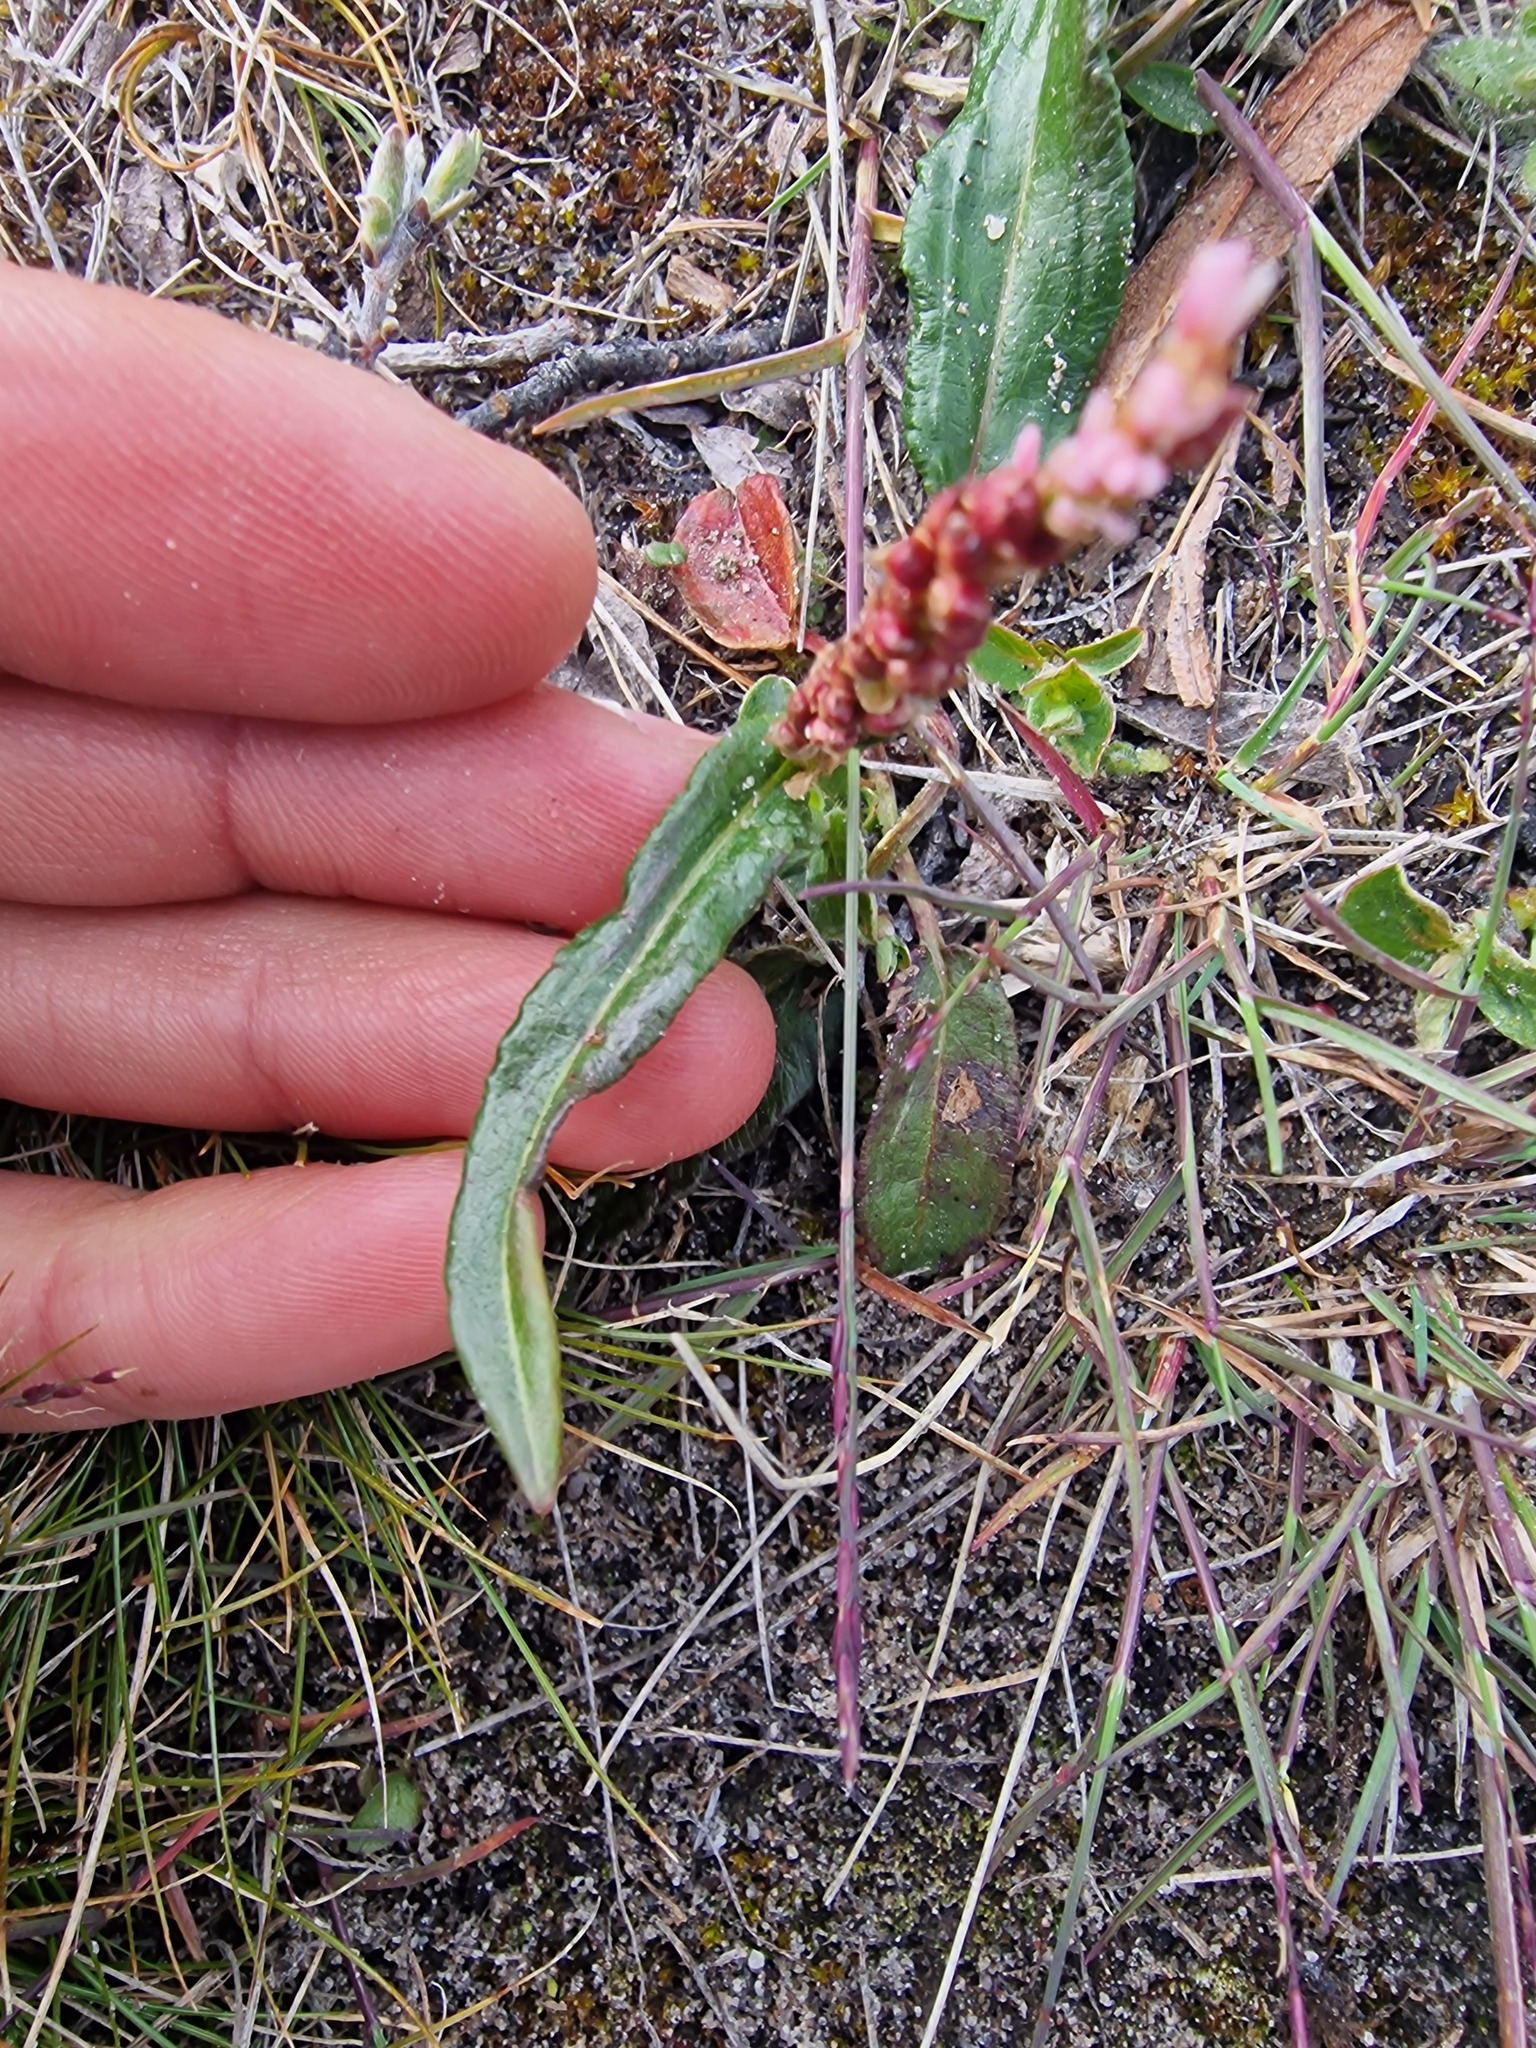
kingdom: Plantae
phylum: Tracheophyta
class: Magnoliopsida
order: Caryophyllales
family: Polygonaceae
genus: Bistorta
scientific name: Bistorta vivipara
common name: Alpine bistort
